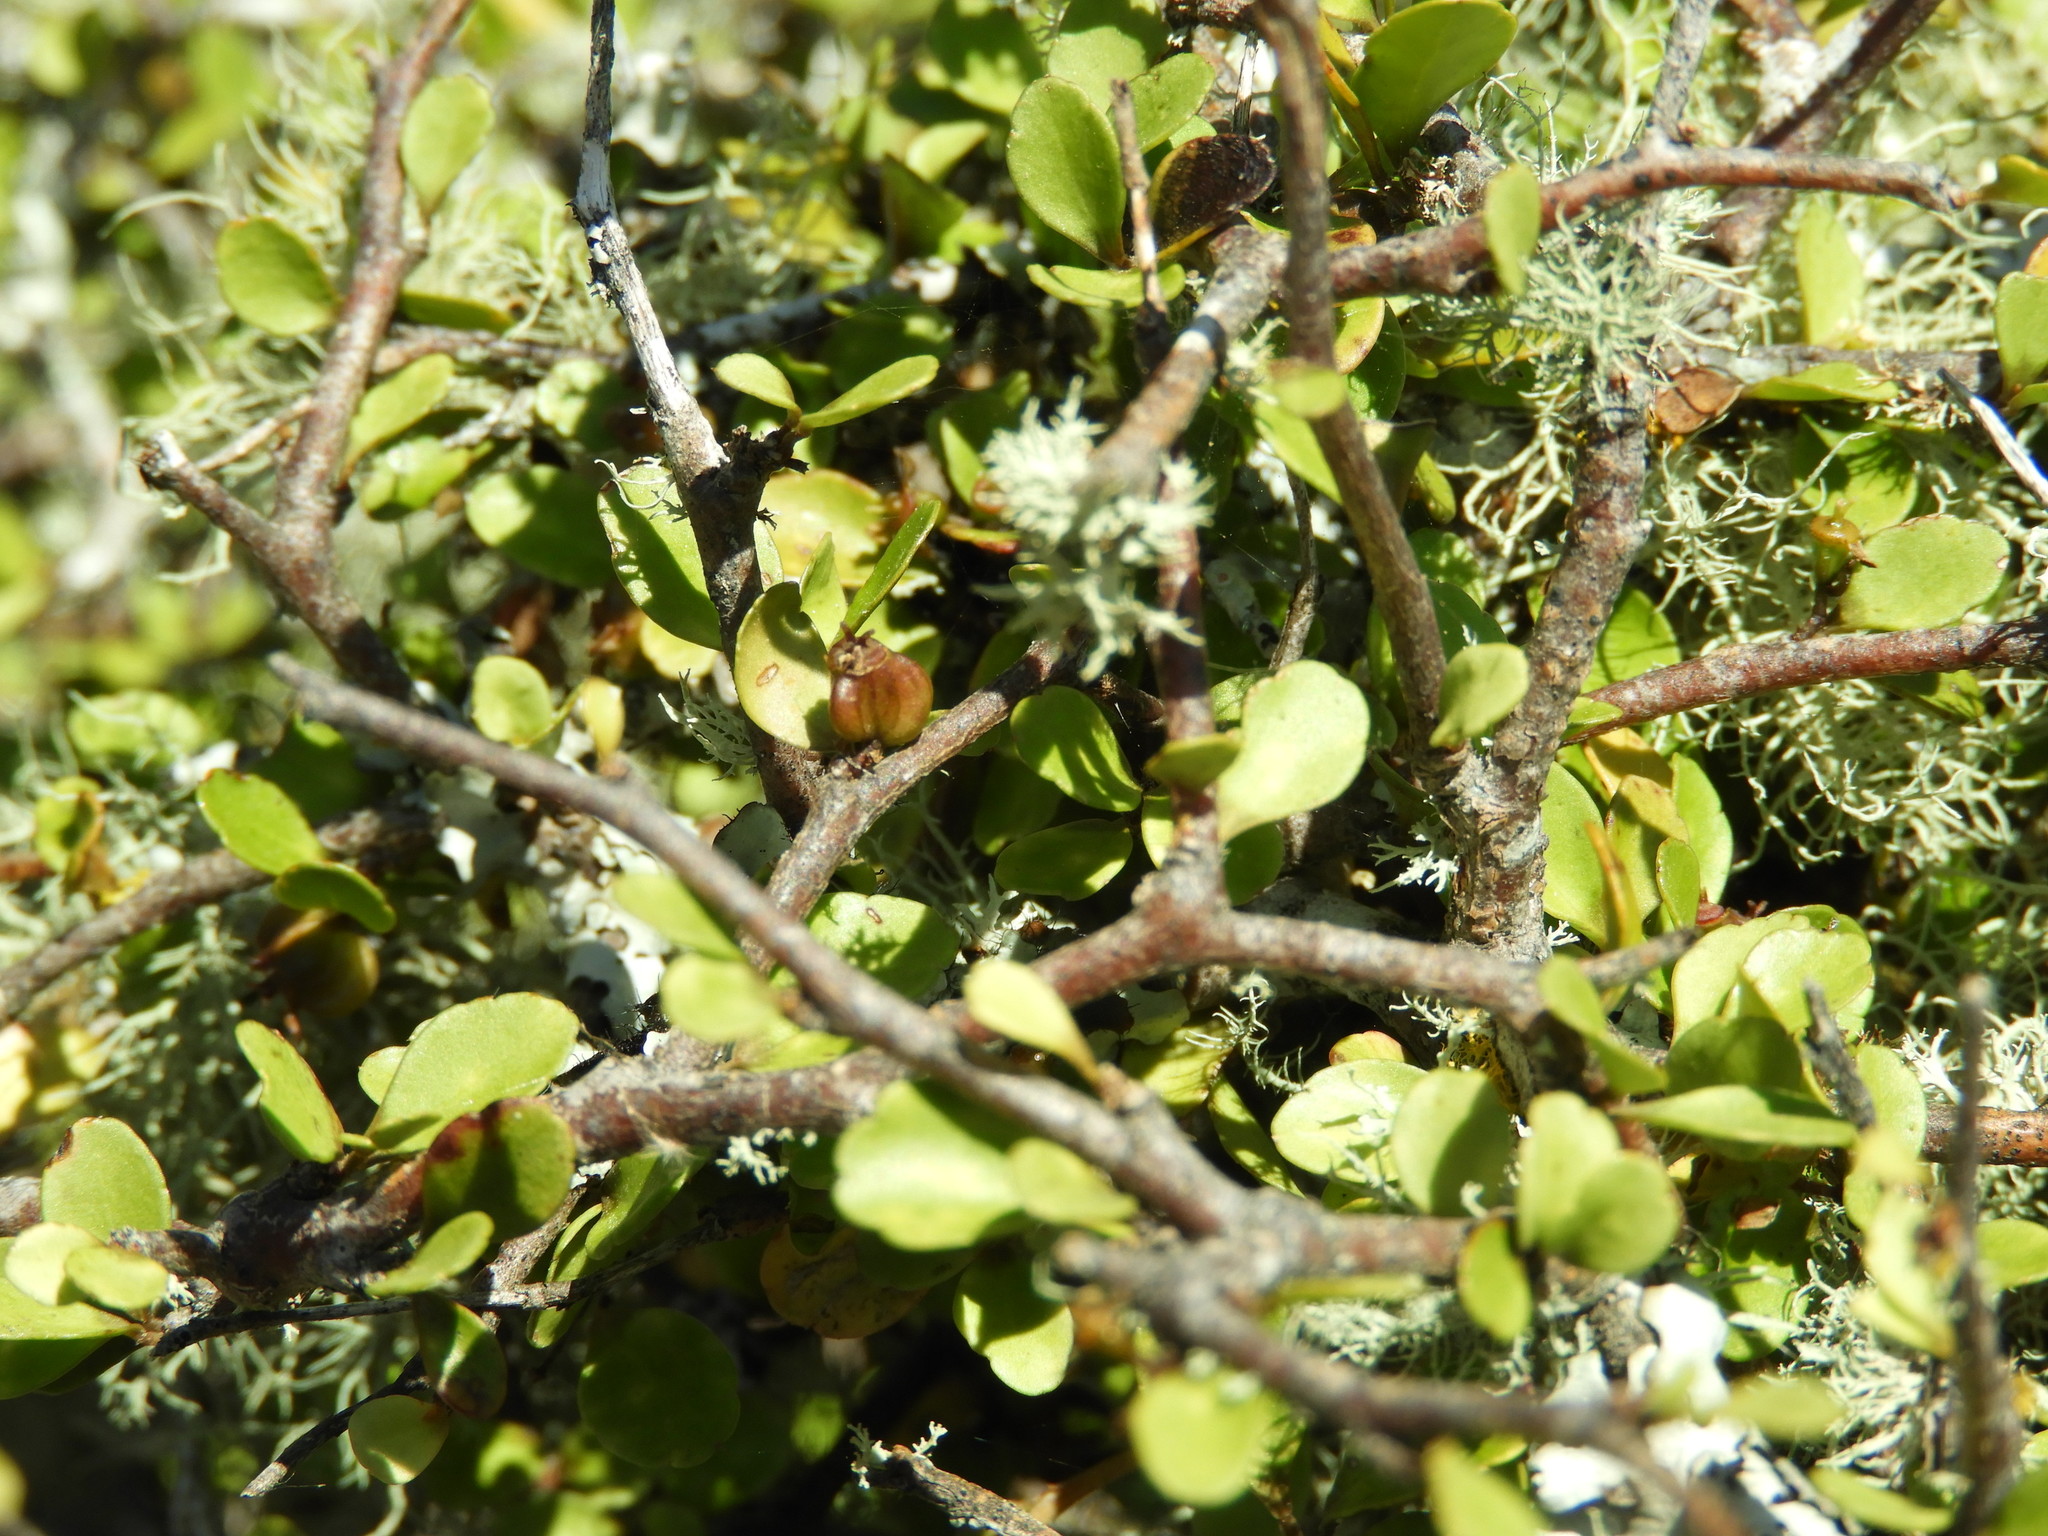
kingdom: Plantae
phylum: Tracheophyta
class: Magnoliopsida
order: Apiales
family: Araliaceae
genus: Raukaua
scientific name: Raukaua anomalus
